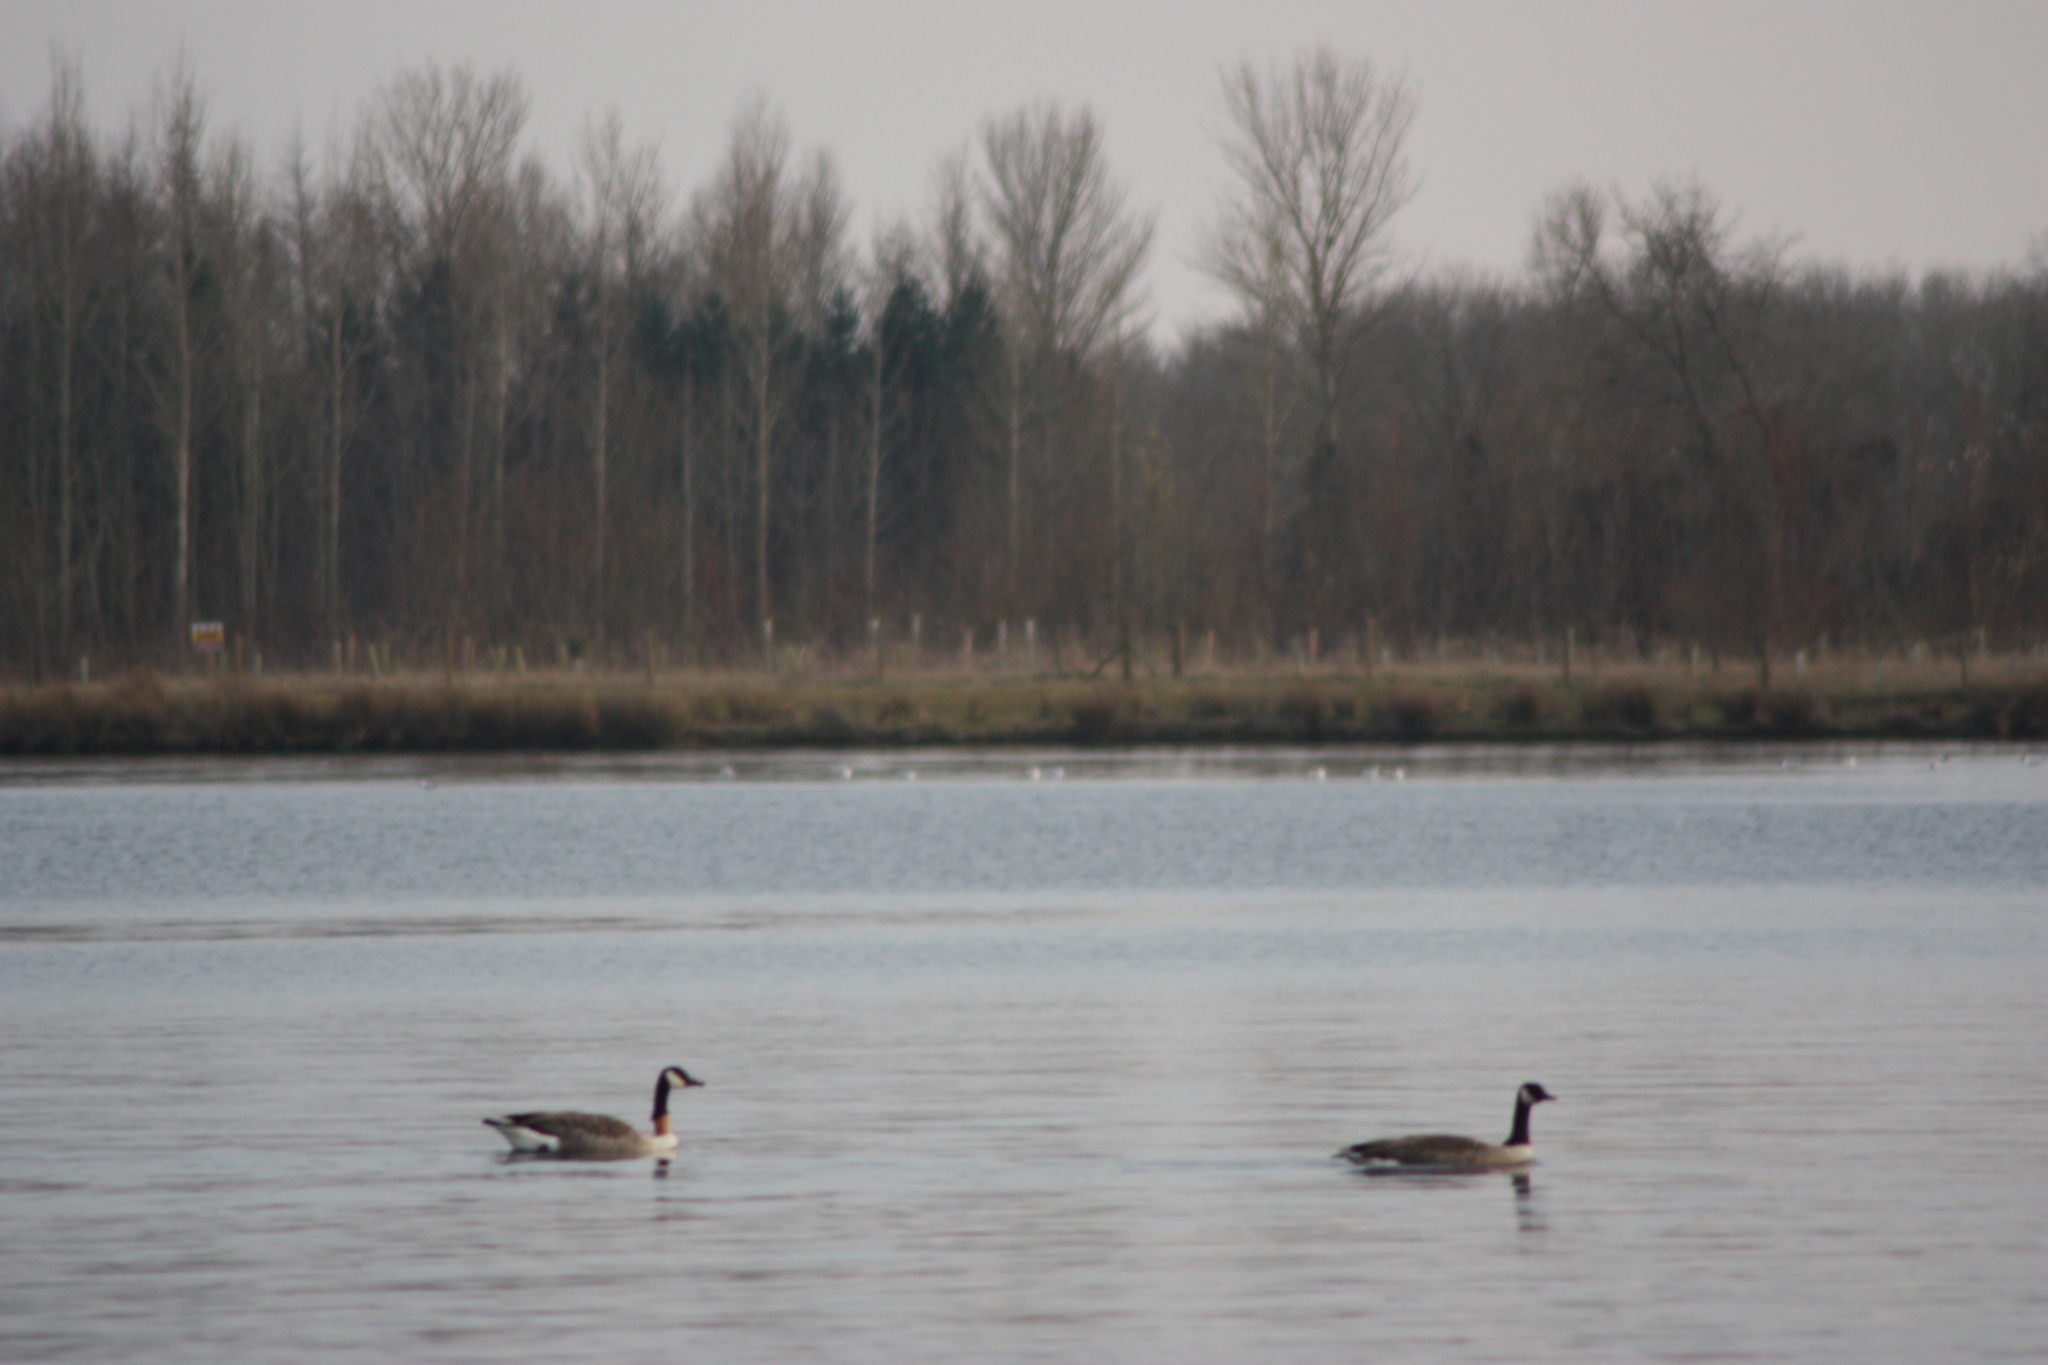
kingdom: Animalia
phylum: Chordata
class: Aves
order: Anseriformes
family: Anatidae
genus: Branta
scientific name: Branta canadensis
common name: Canada goose
